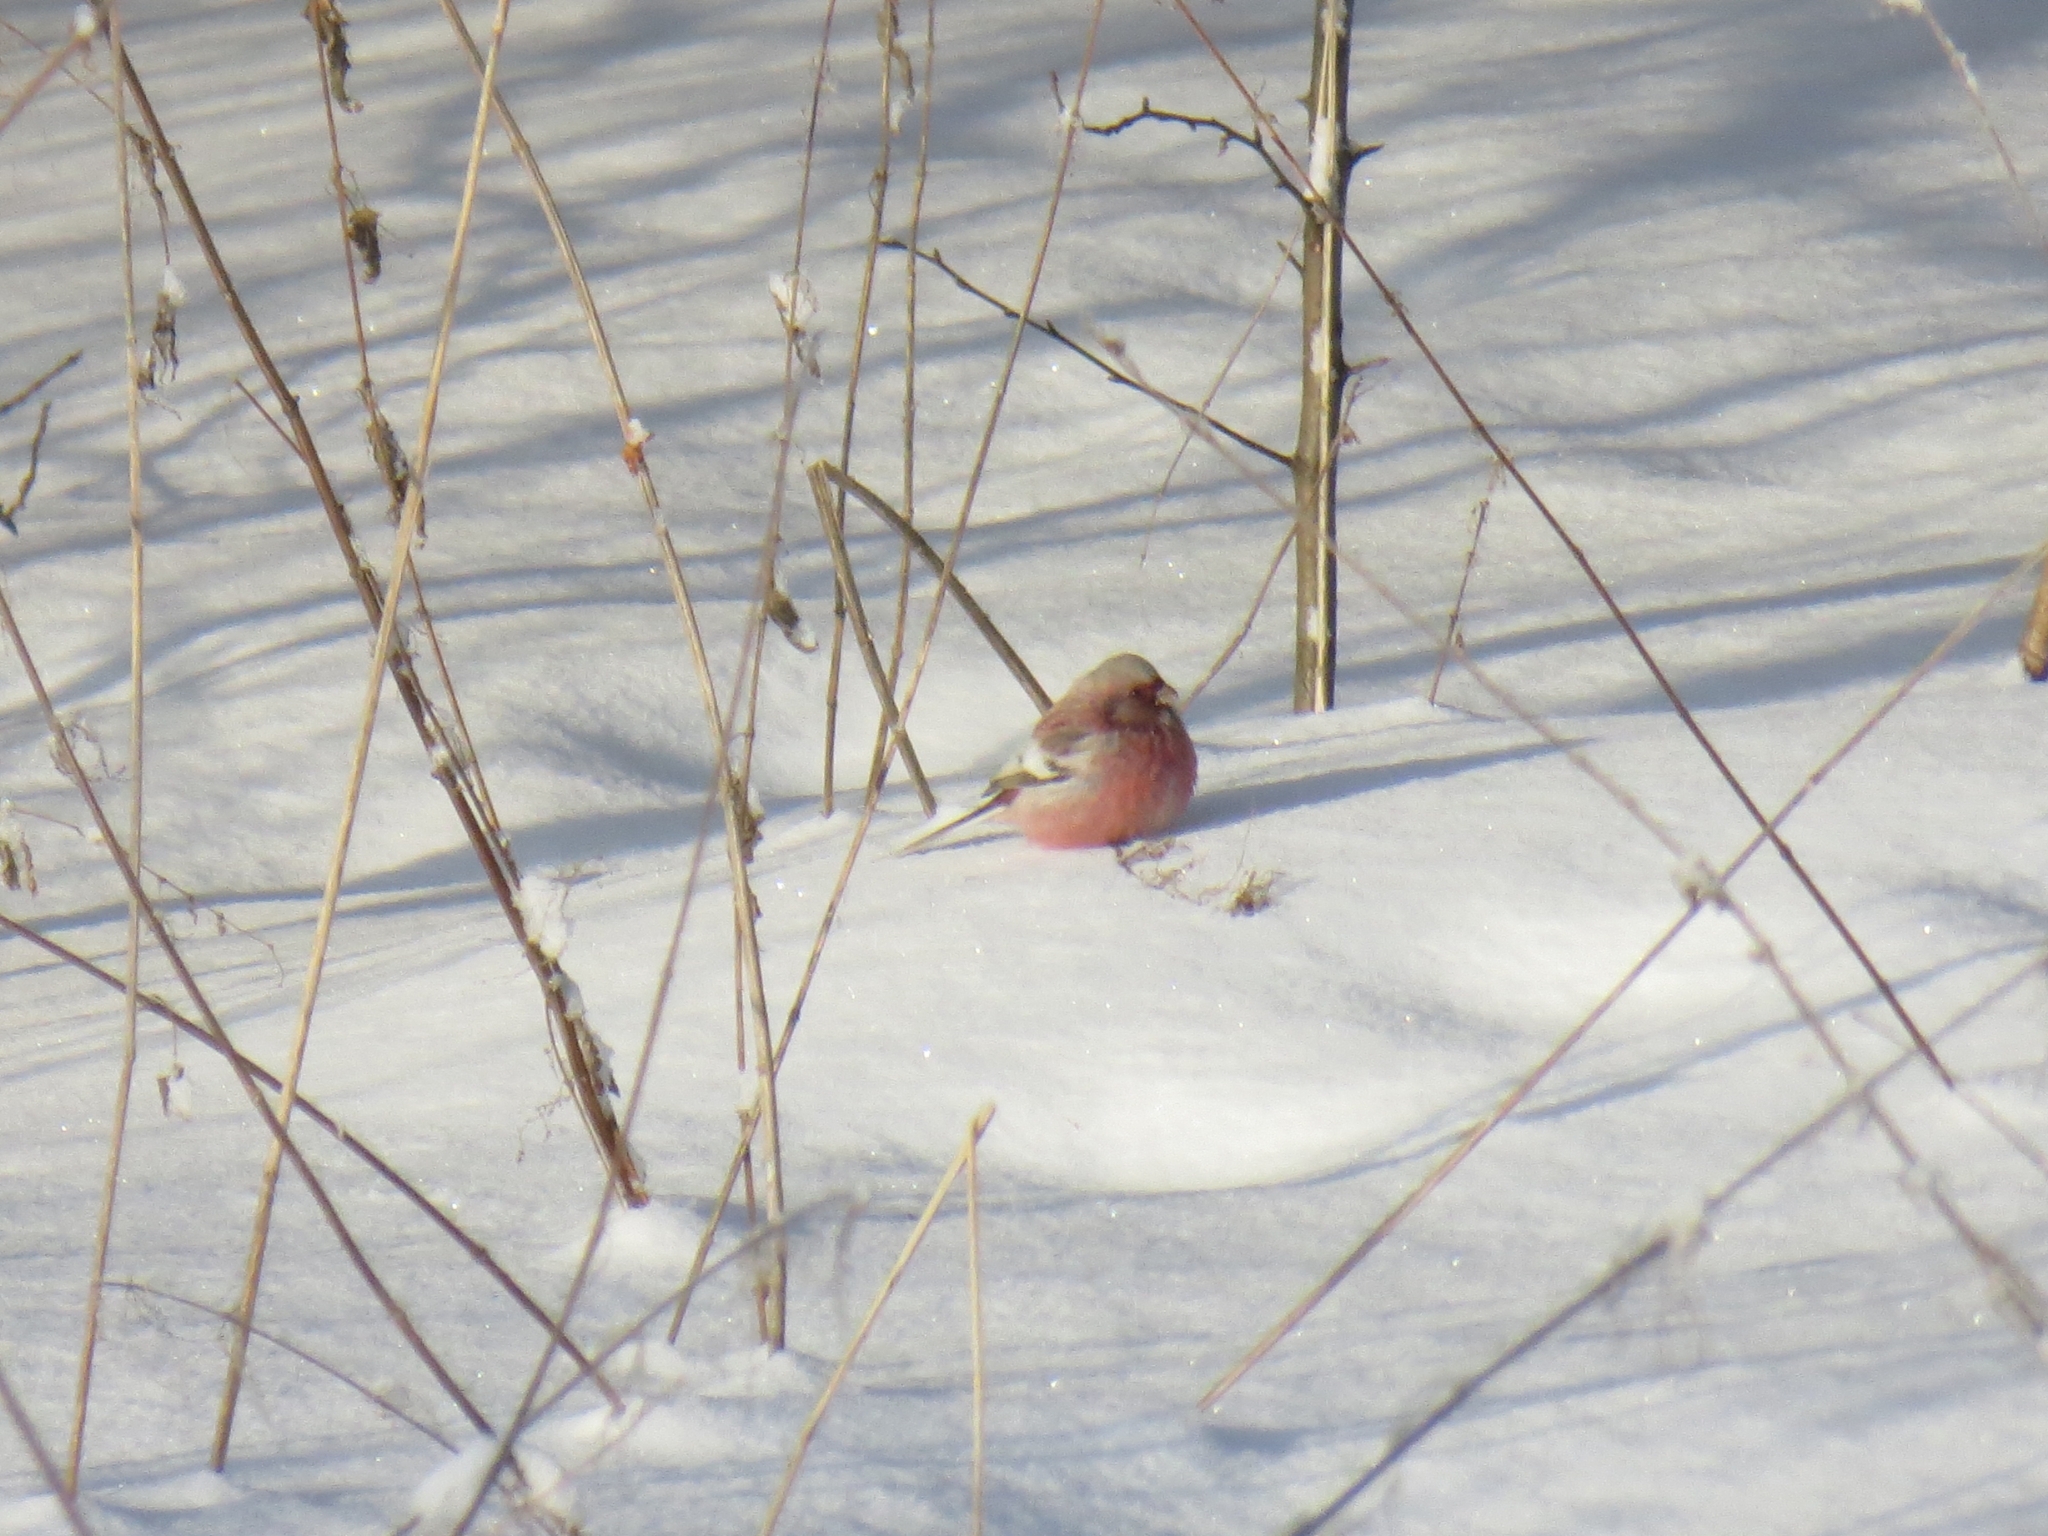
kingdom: Animalia
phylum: Chordata
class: Aves
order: Passeriformes
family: Fringillidae
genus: Carpodacus
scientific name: Carpodacus sibiricus
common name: Long-tailed rosefinch
